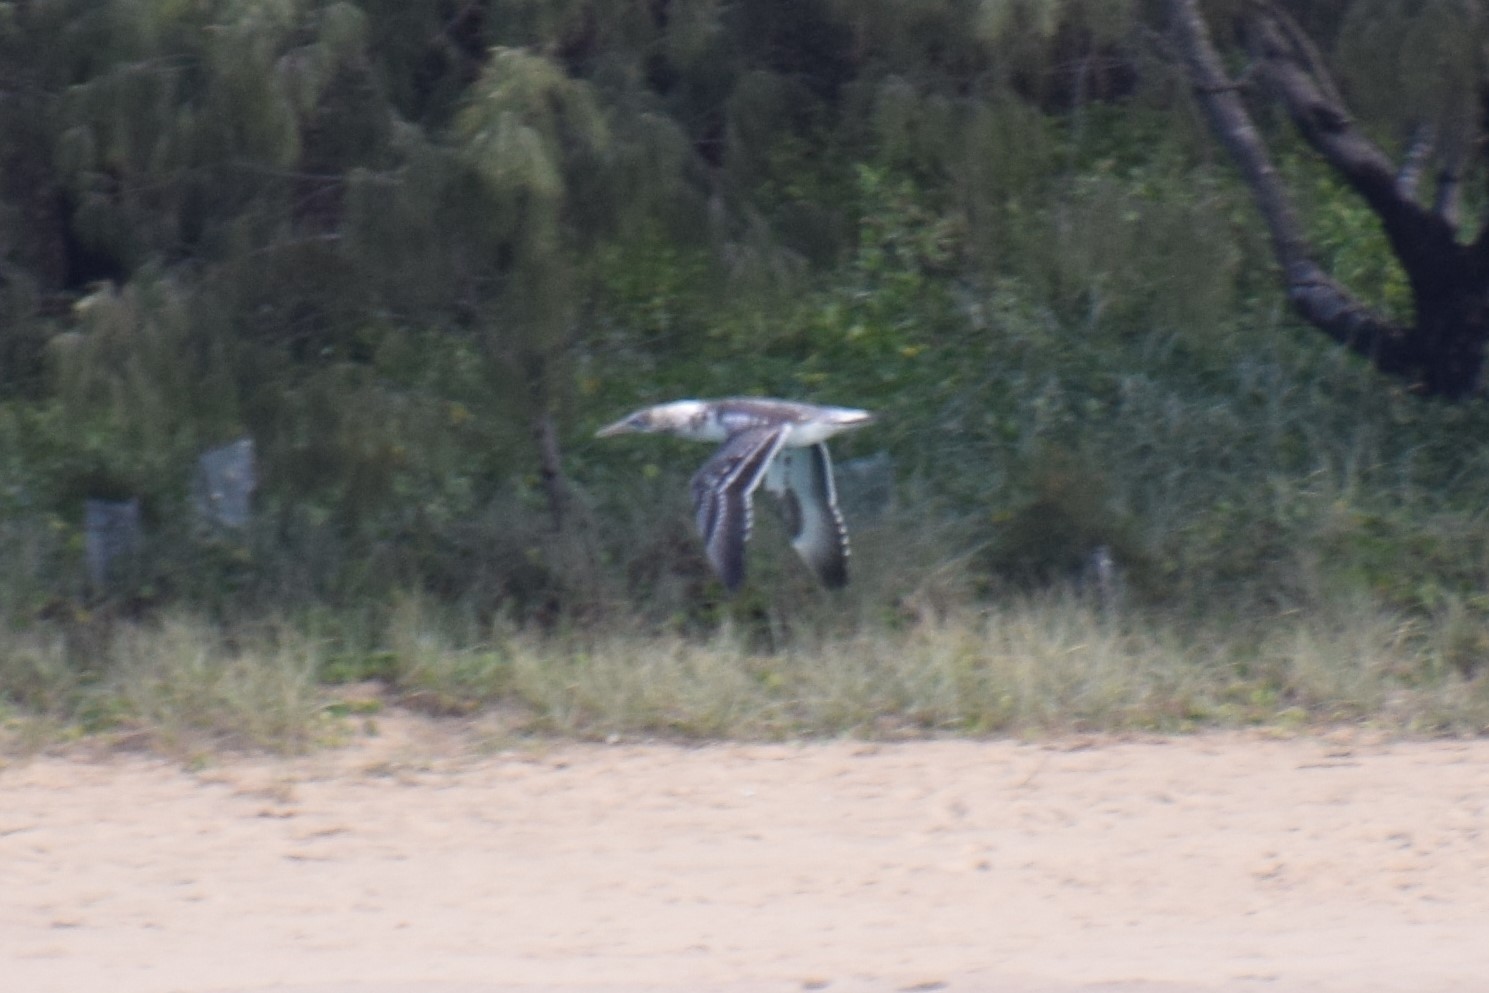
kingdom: Animalia
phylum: Chordata
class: Aves
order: Suliformes
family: Sulidae
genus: Morus
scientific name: Morus serrator
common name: Australasian gannet
